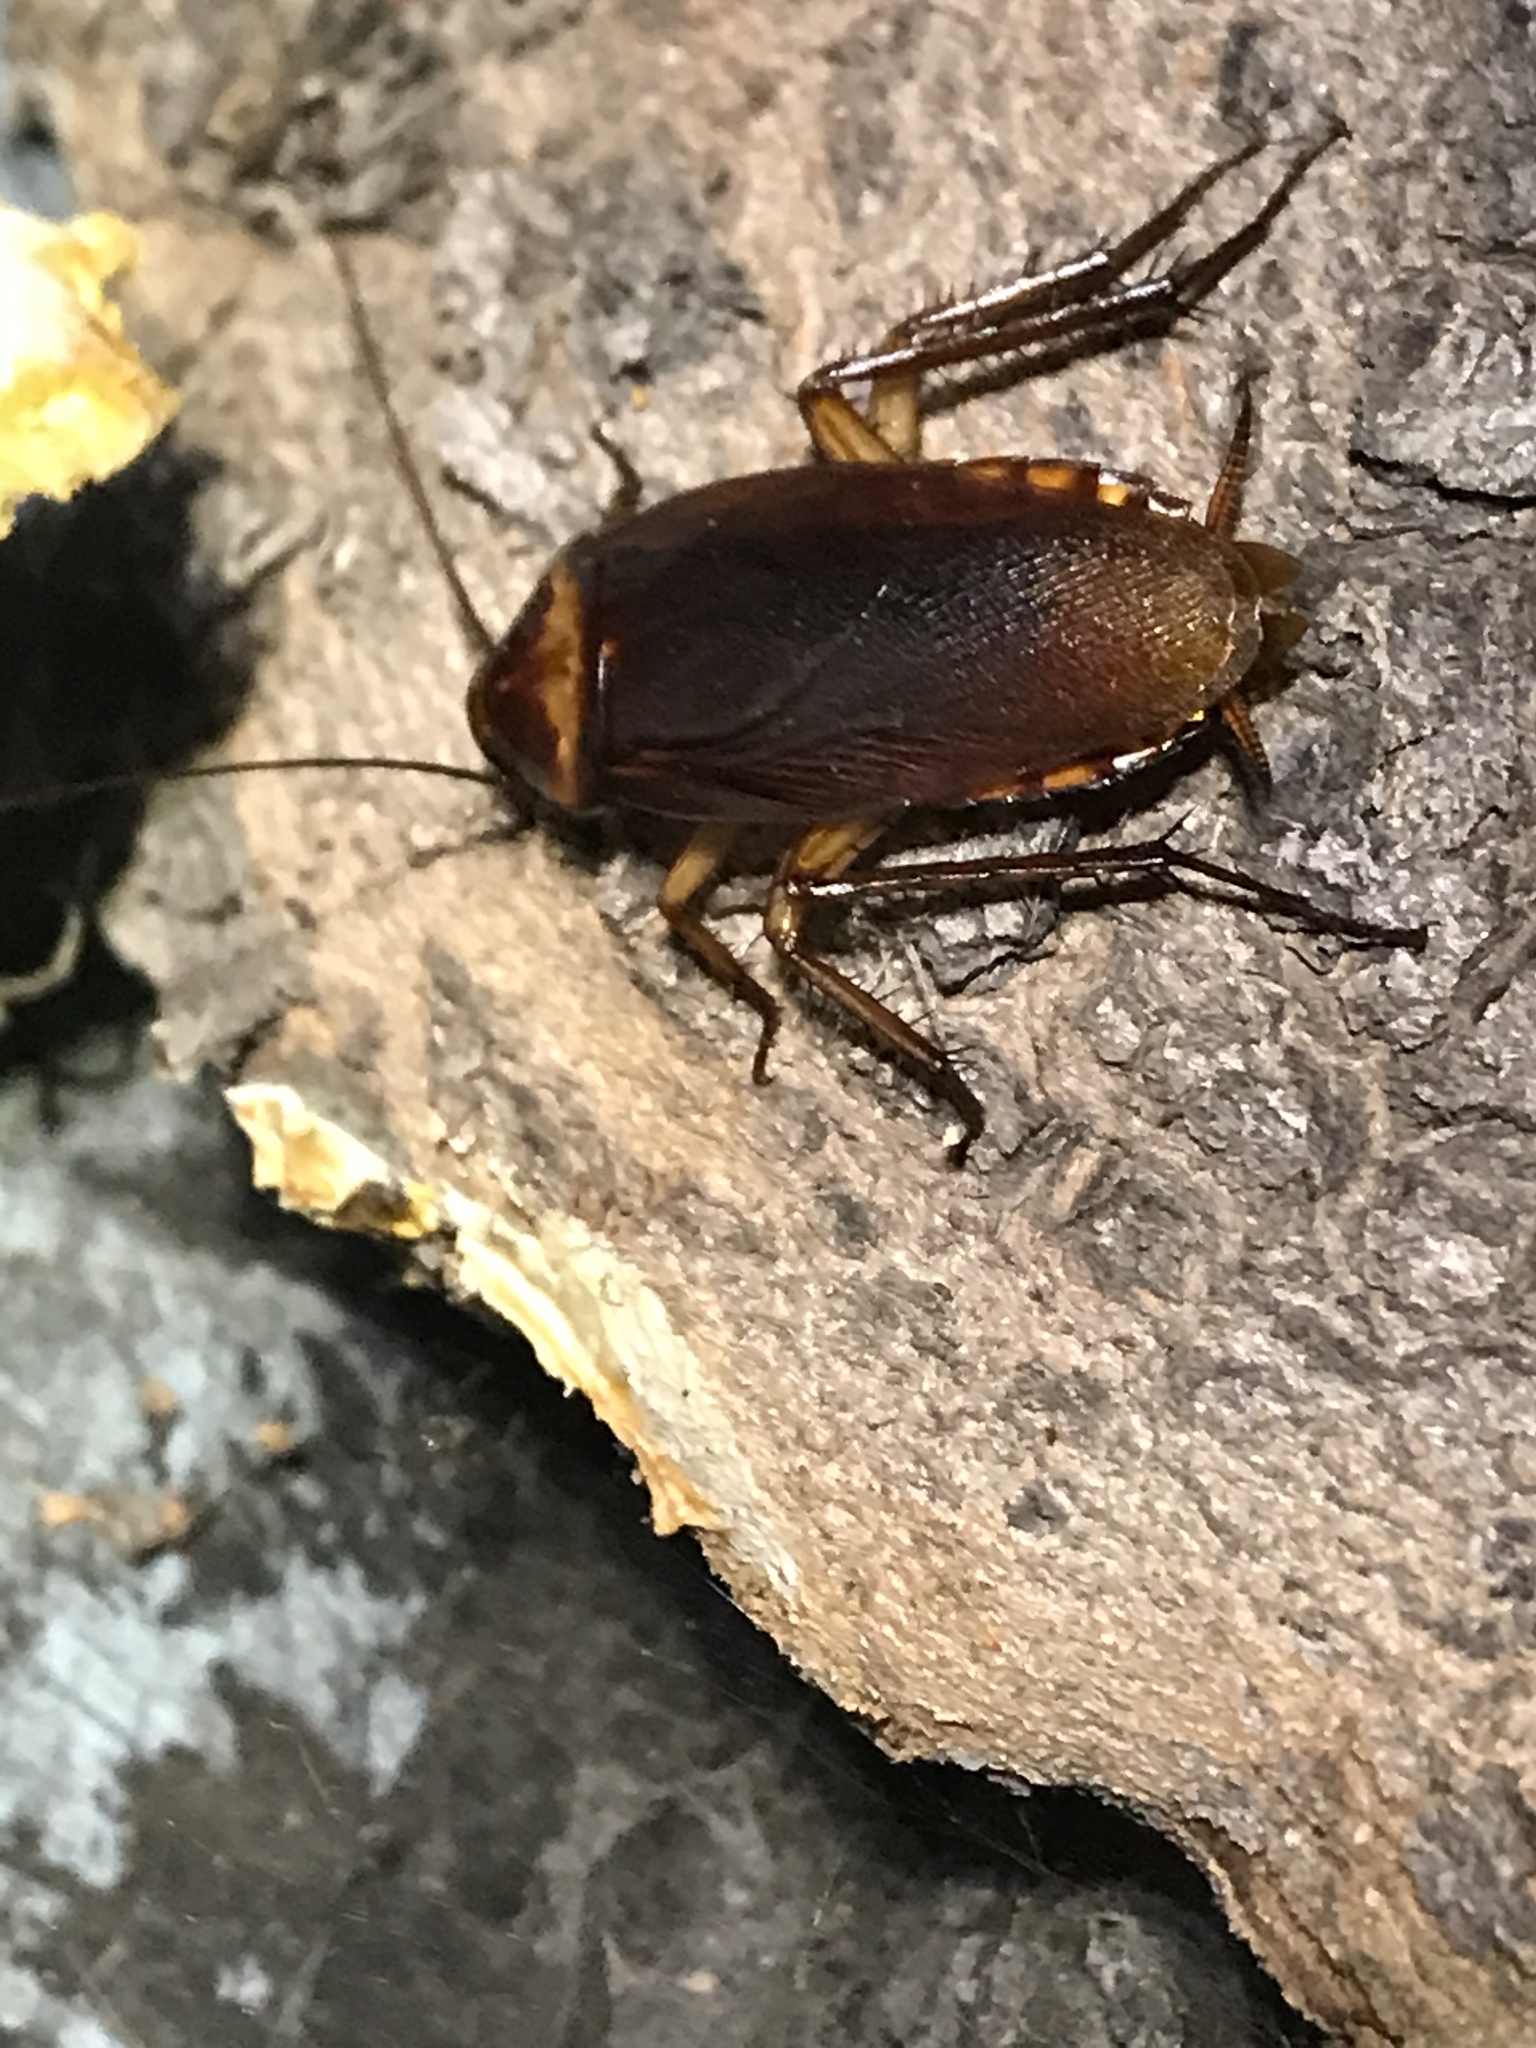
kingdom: Animalia
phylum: Arthropoda
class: Insecta
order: Blattodea
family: Blattidae
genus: Periplaneta
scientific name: Periplaneta americana
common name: American cockroach
